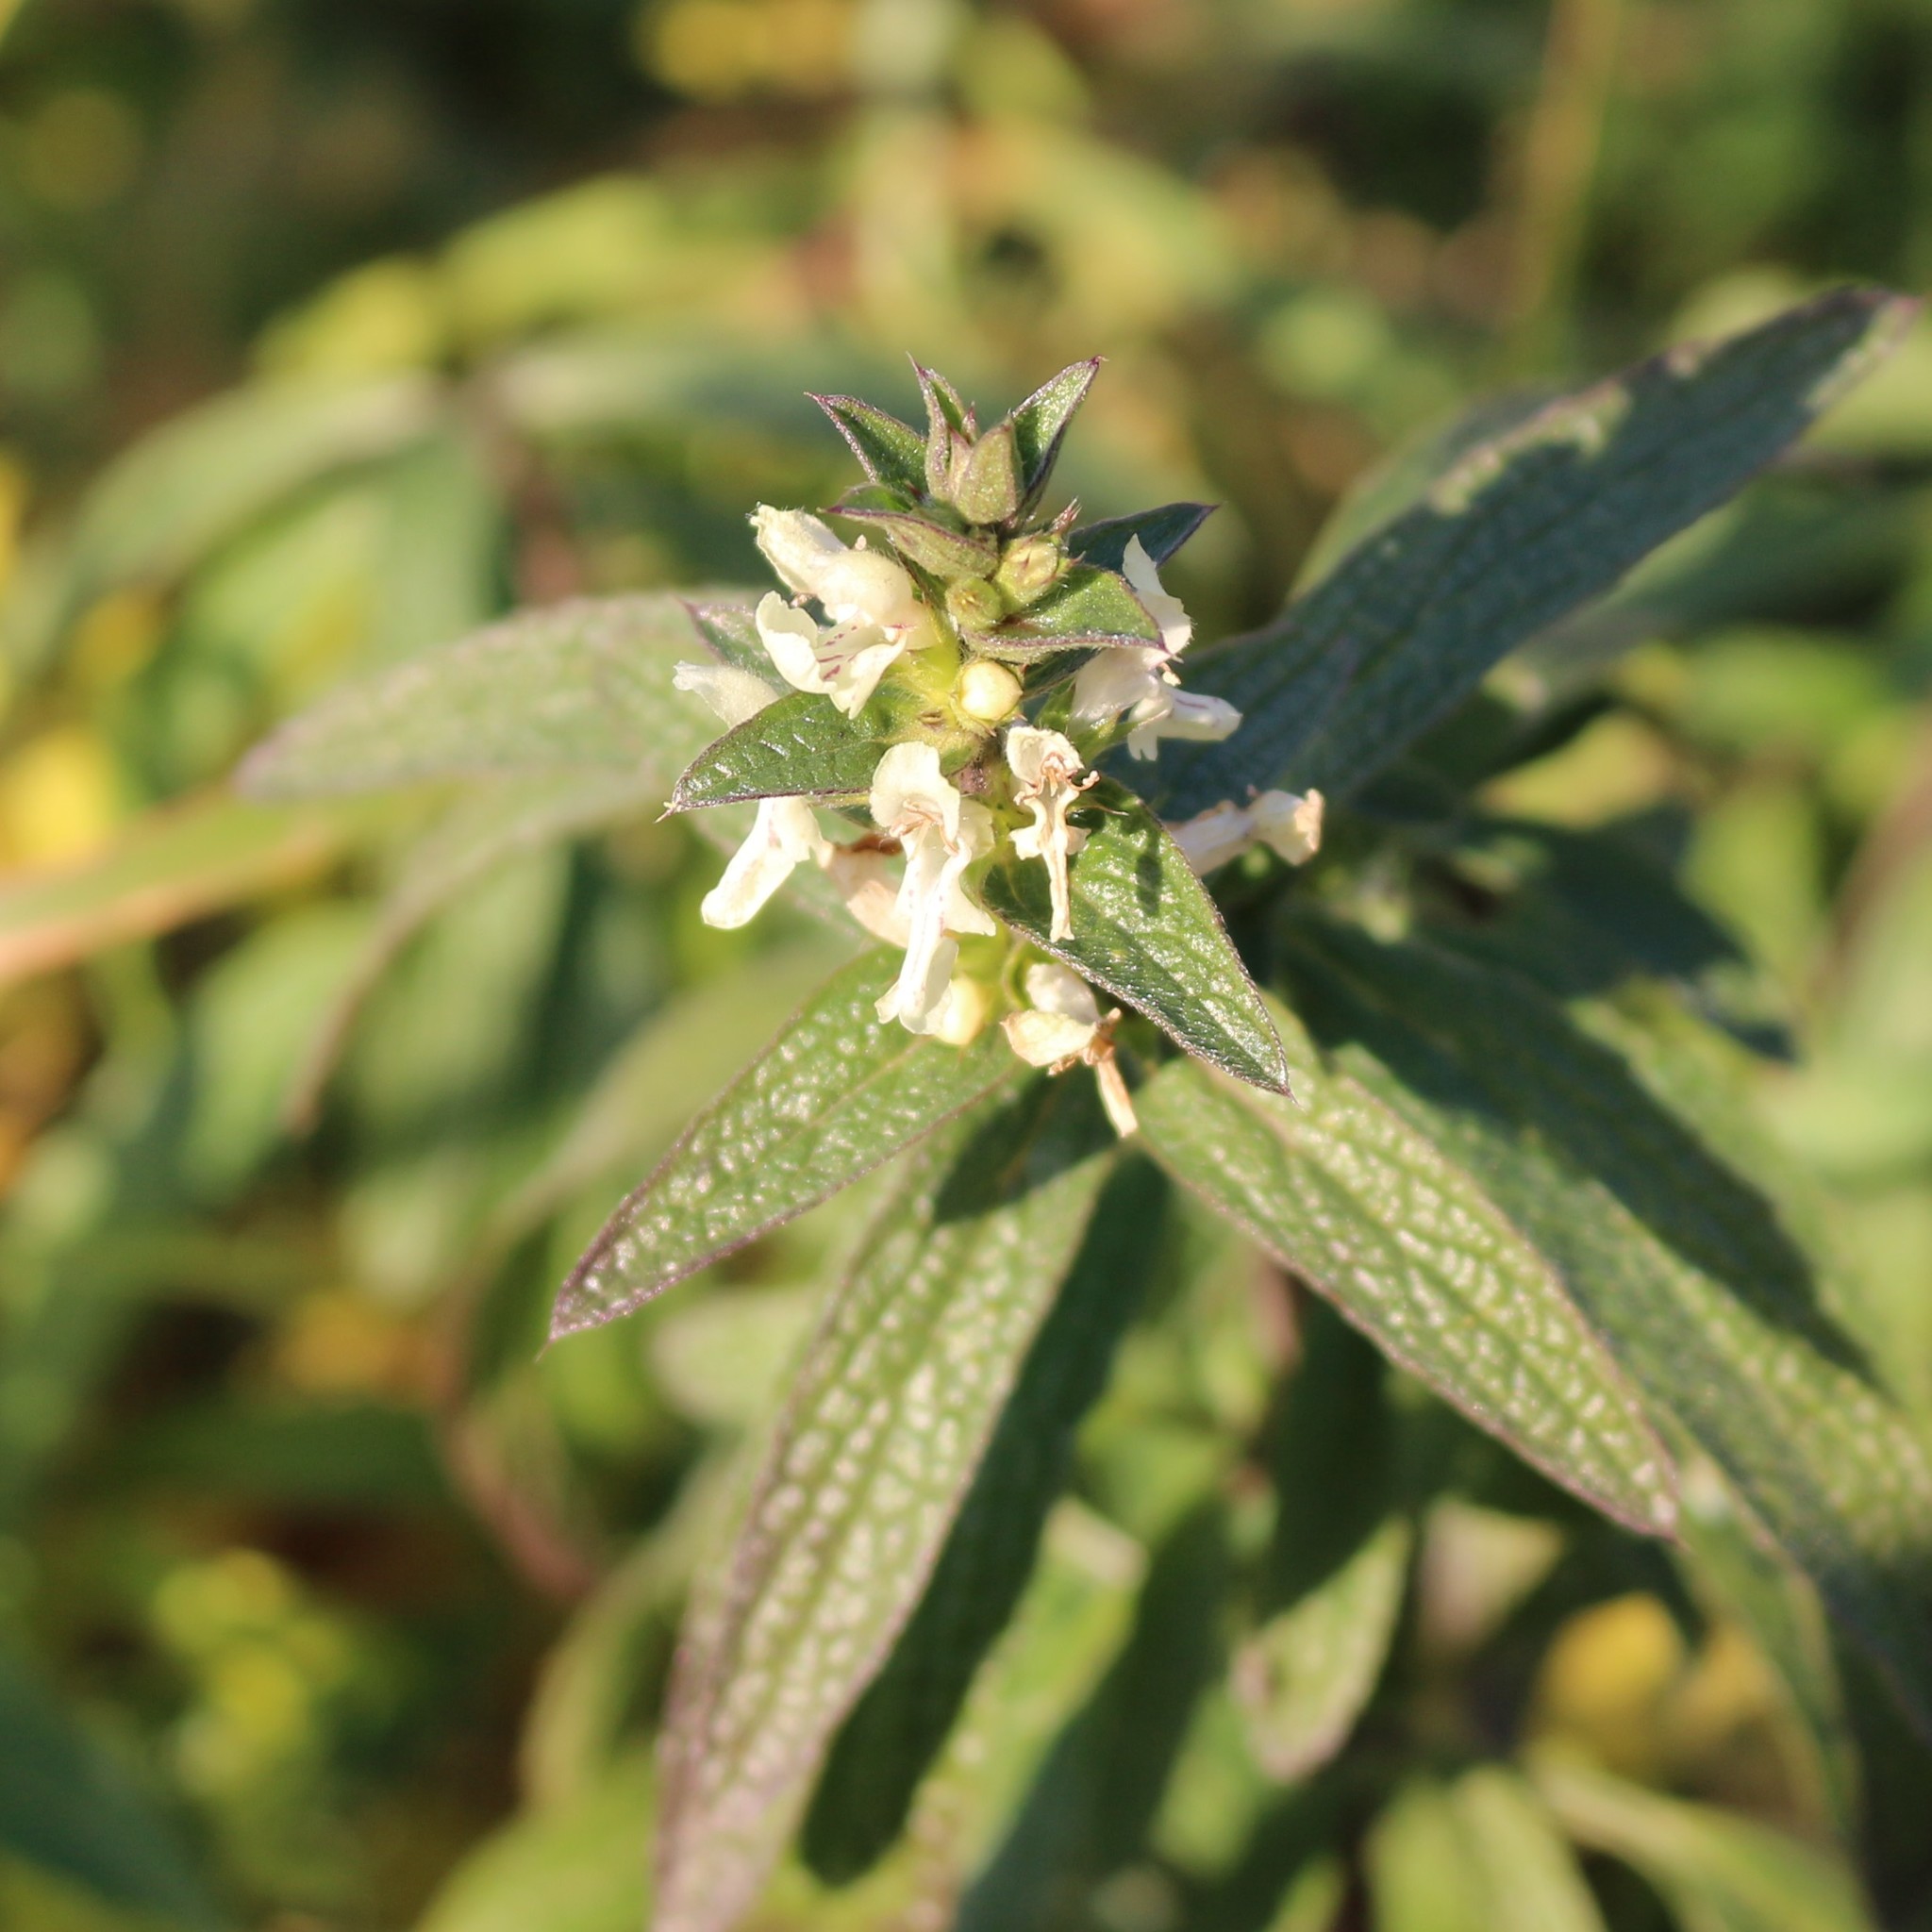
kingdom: Plantae
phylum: Tracheophyta
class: Magnoliopsida
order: Lamiales
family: Lamiaceae
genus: Stachys
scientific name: Stachys atherocalyx
